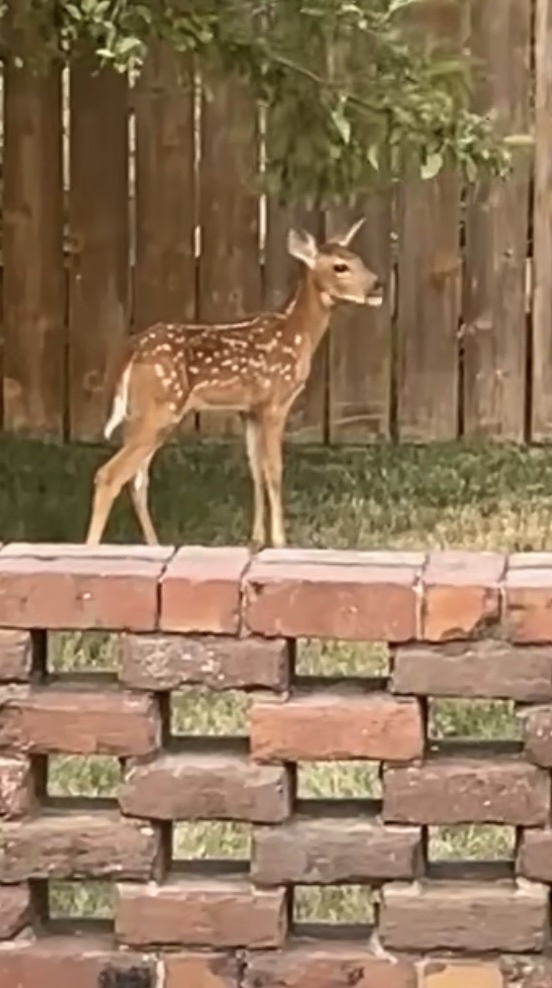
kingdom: Animalia
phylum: Chordata
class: Mammalia
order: Artiodactyla
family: Cervidae
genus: Odocoileus
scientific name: Odocoileus virginianus
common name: White-tailed deer
